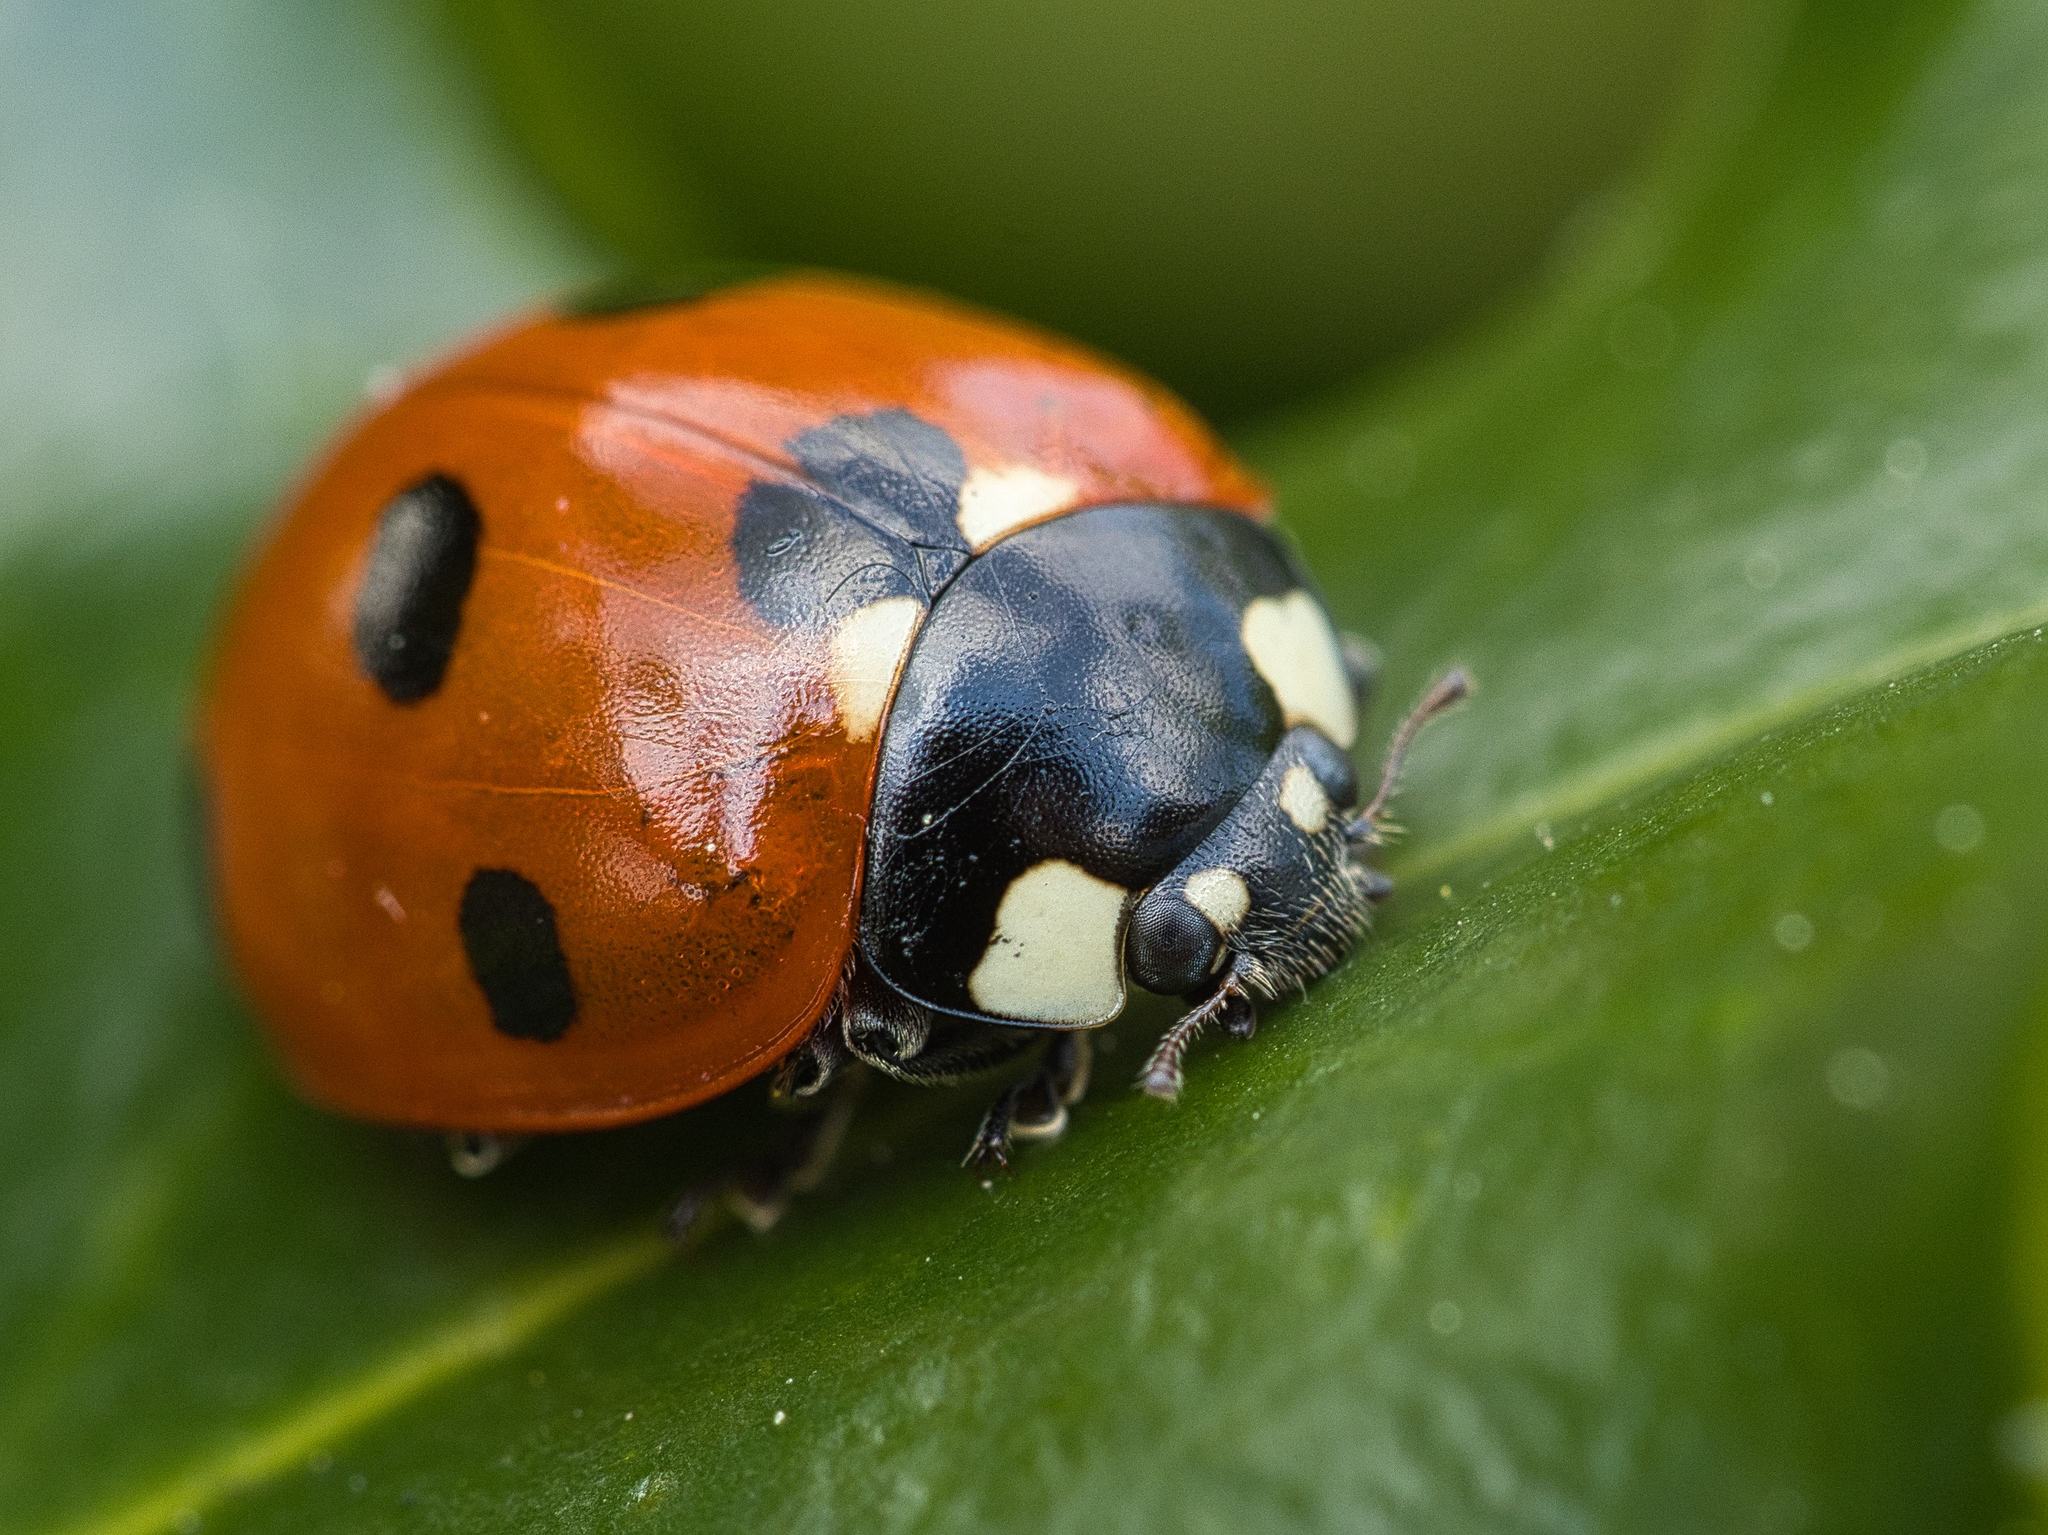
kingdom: Animalia
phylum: Arthropoda
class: Insecta
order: Coleoptera
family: Coccinellidae
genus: Coccinella
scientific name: Coccinella septempunctata
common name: Sevenspotted lady beetle
